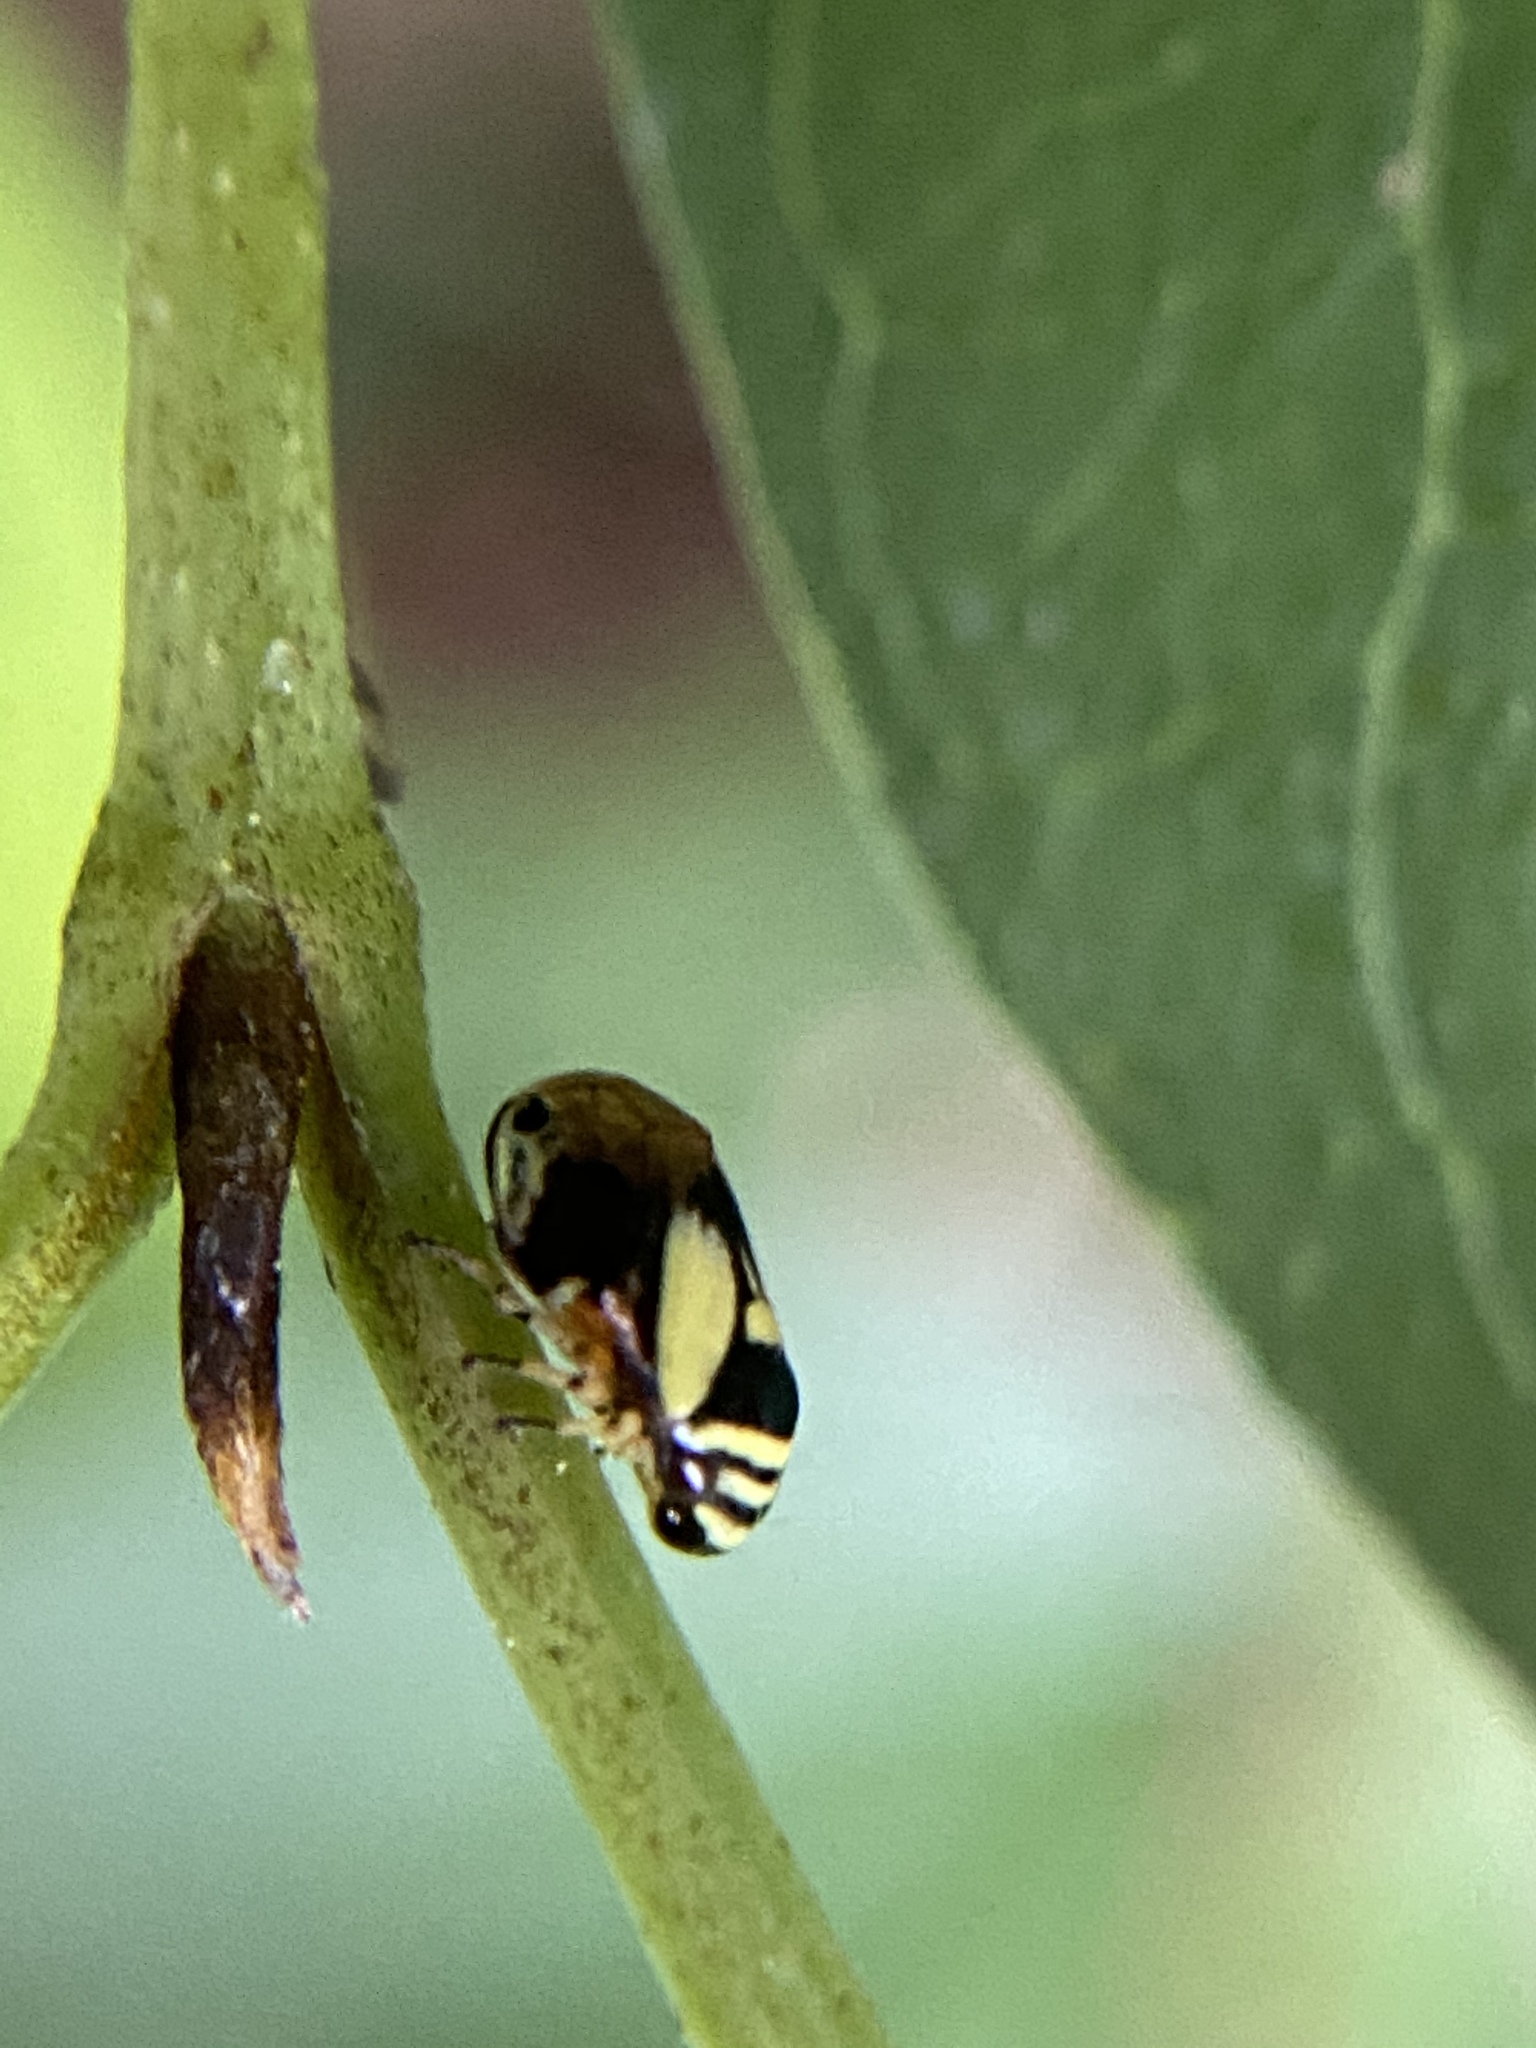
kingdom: Animalia
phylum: Arthropoda
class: Insecta
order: Hemiptera
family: Clastopteridae
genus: Clastoptera
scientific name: Clastoptera proteus
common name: Dogwood spittlebug
